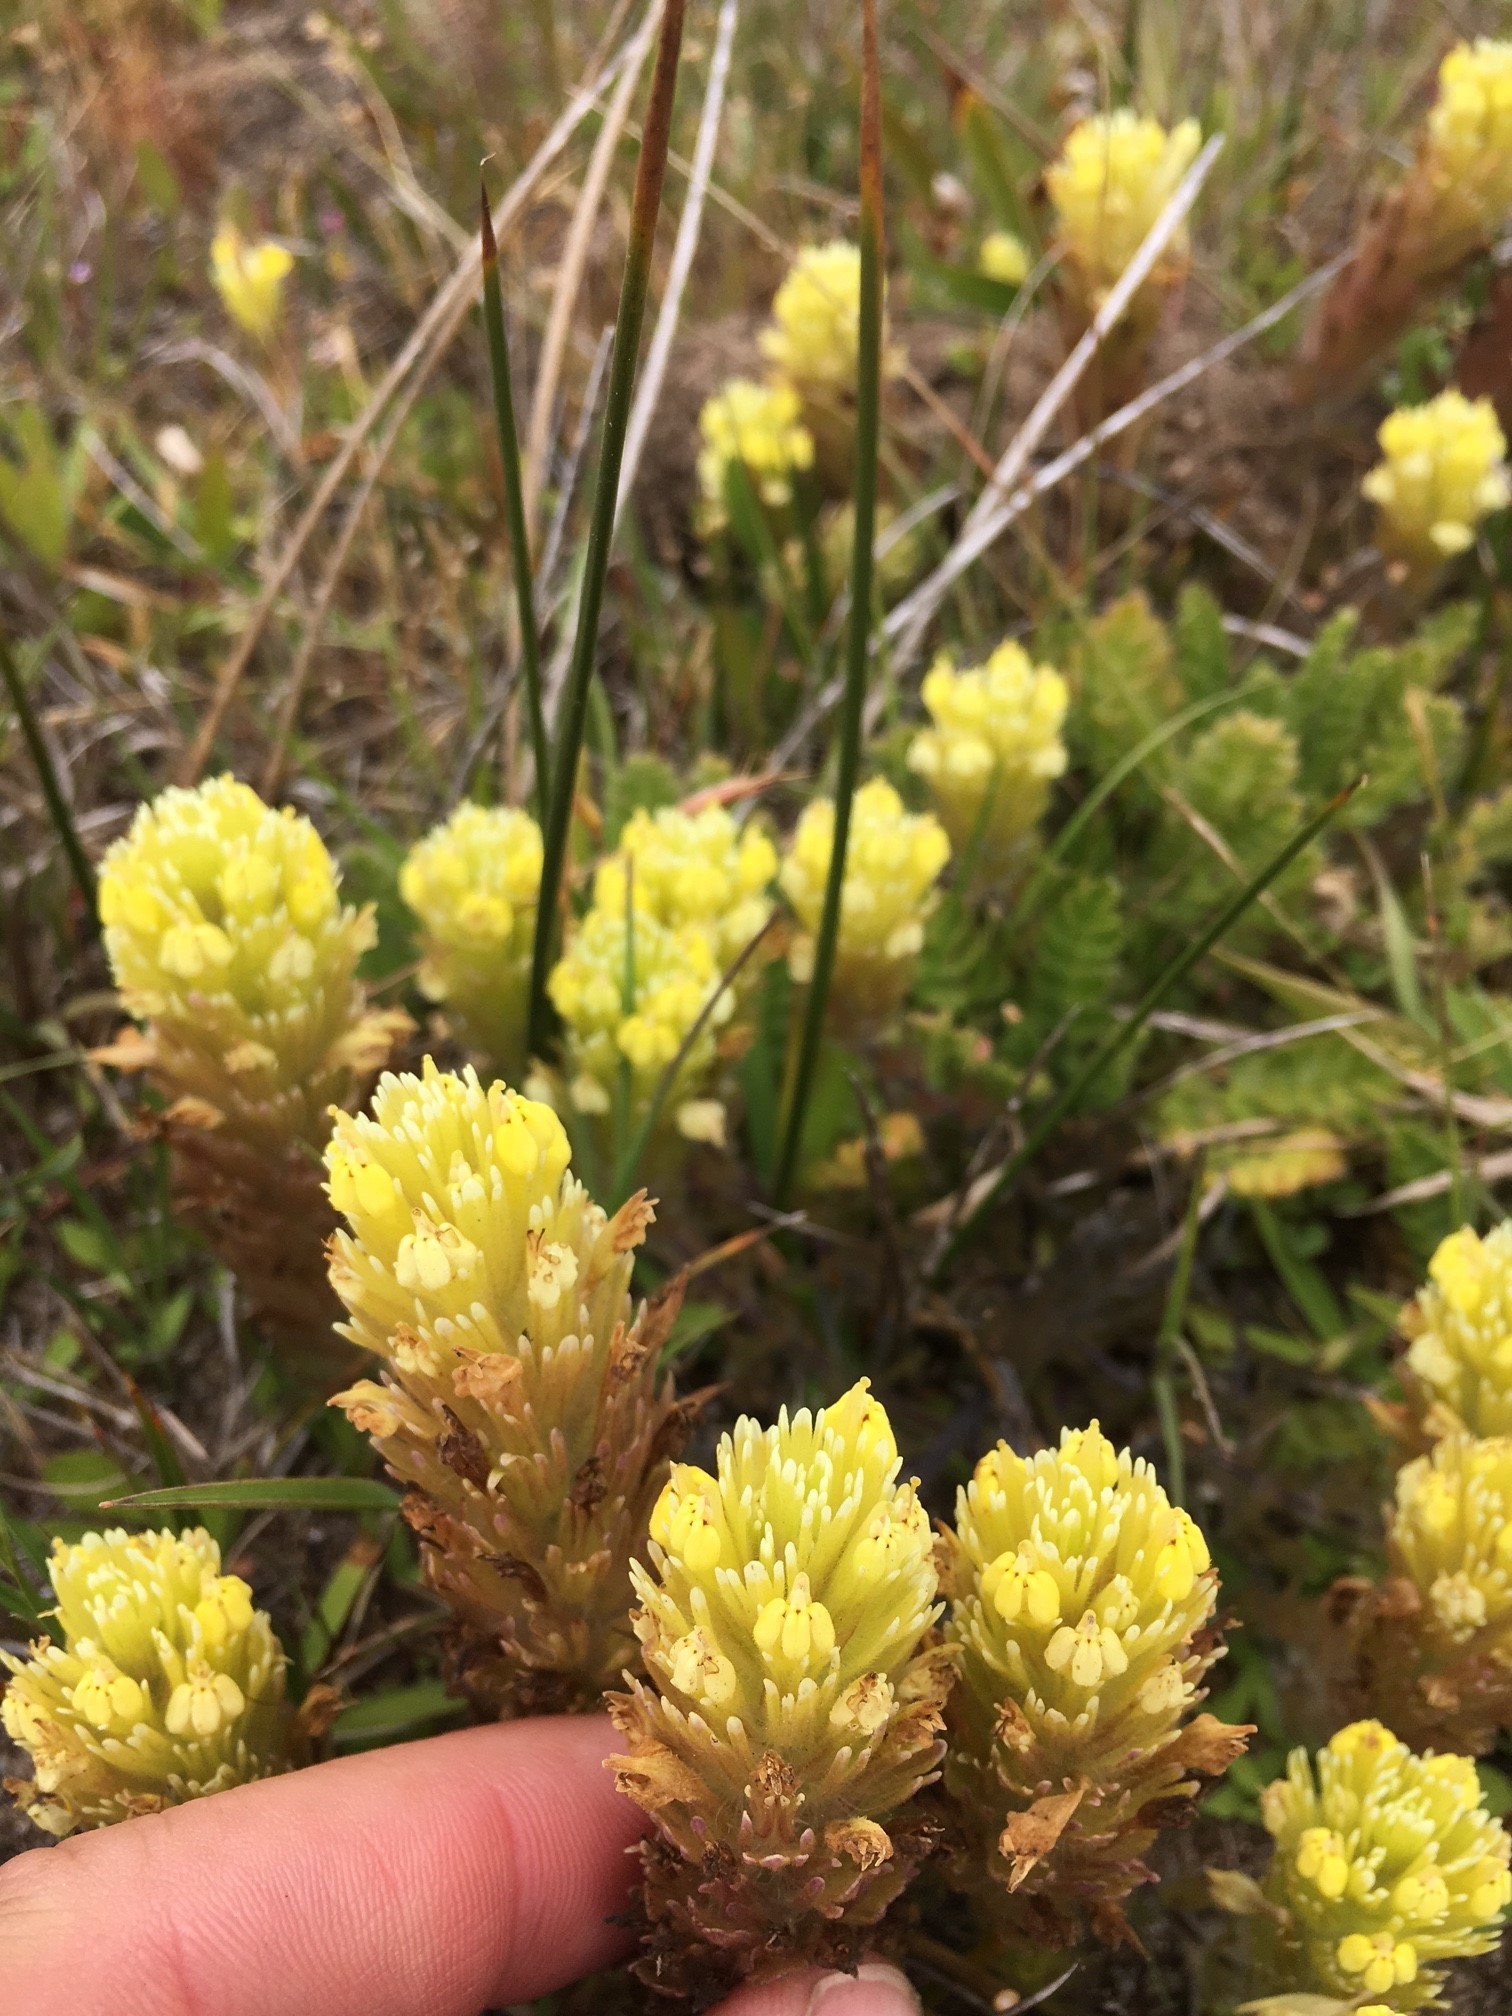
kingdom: Plantae
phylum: Tracheophyta
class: Magnoliopsida
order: Lamiales
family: Orobanchaceae
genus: Castilleja
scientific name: Castilleja ambigua
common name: Johnny-nip
